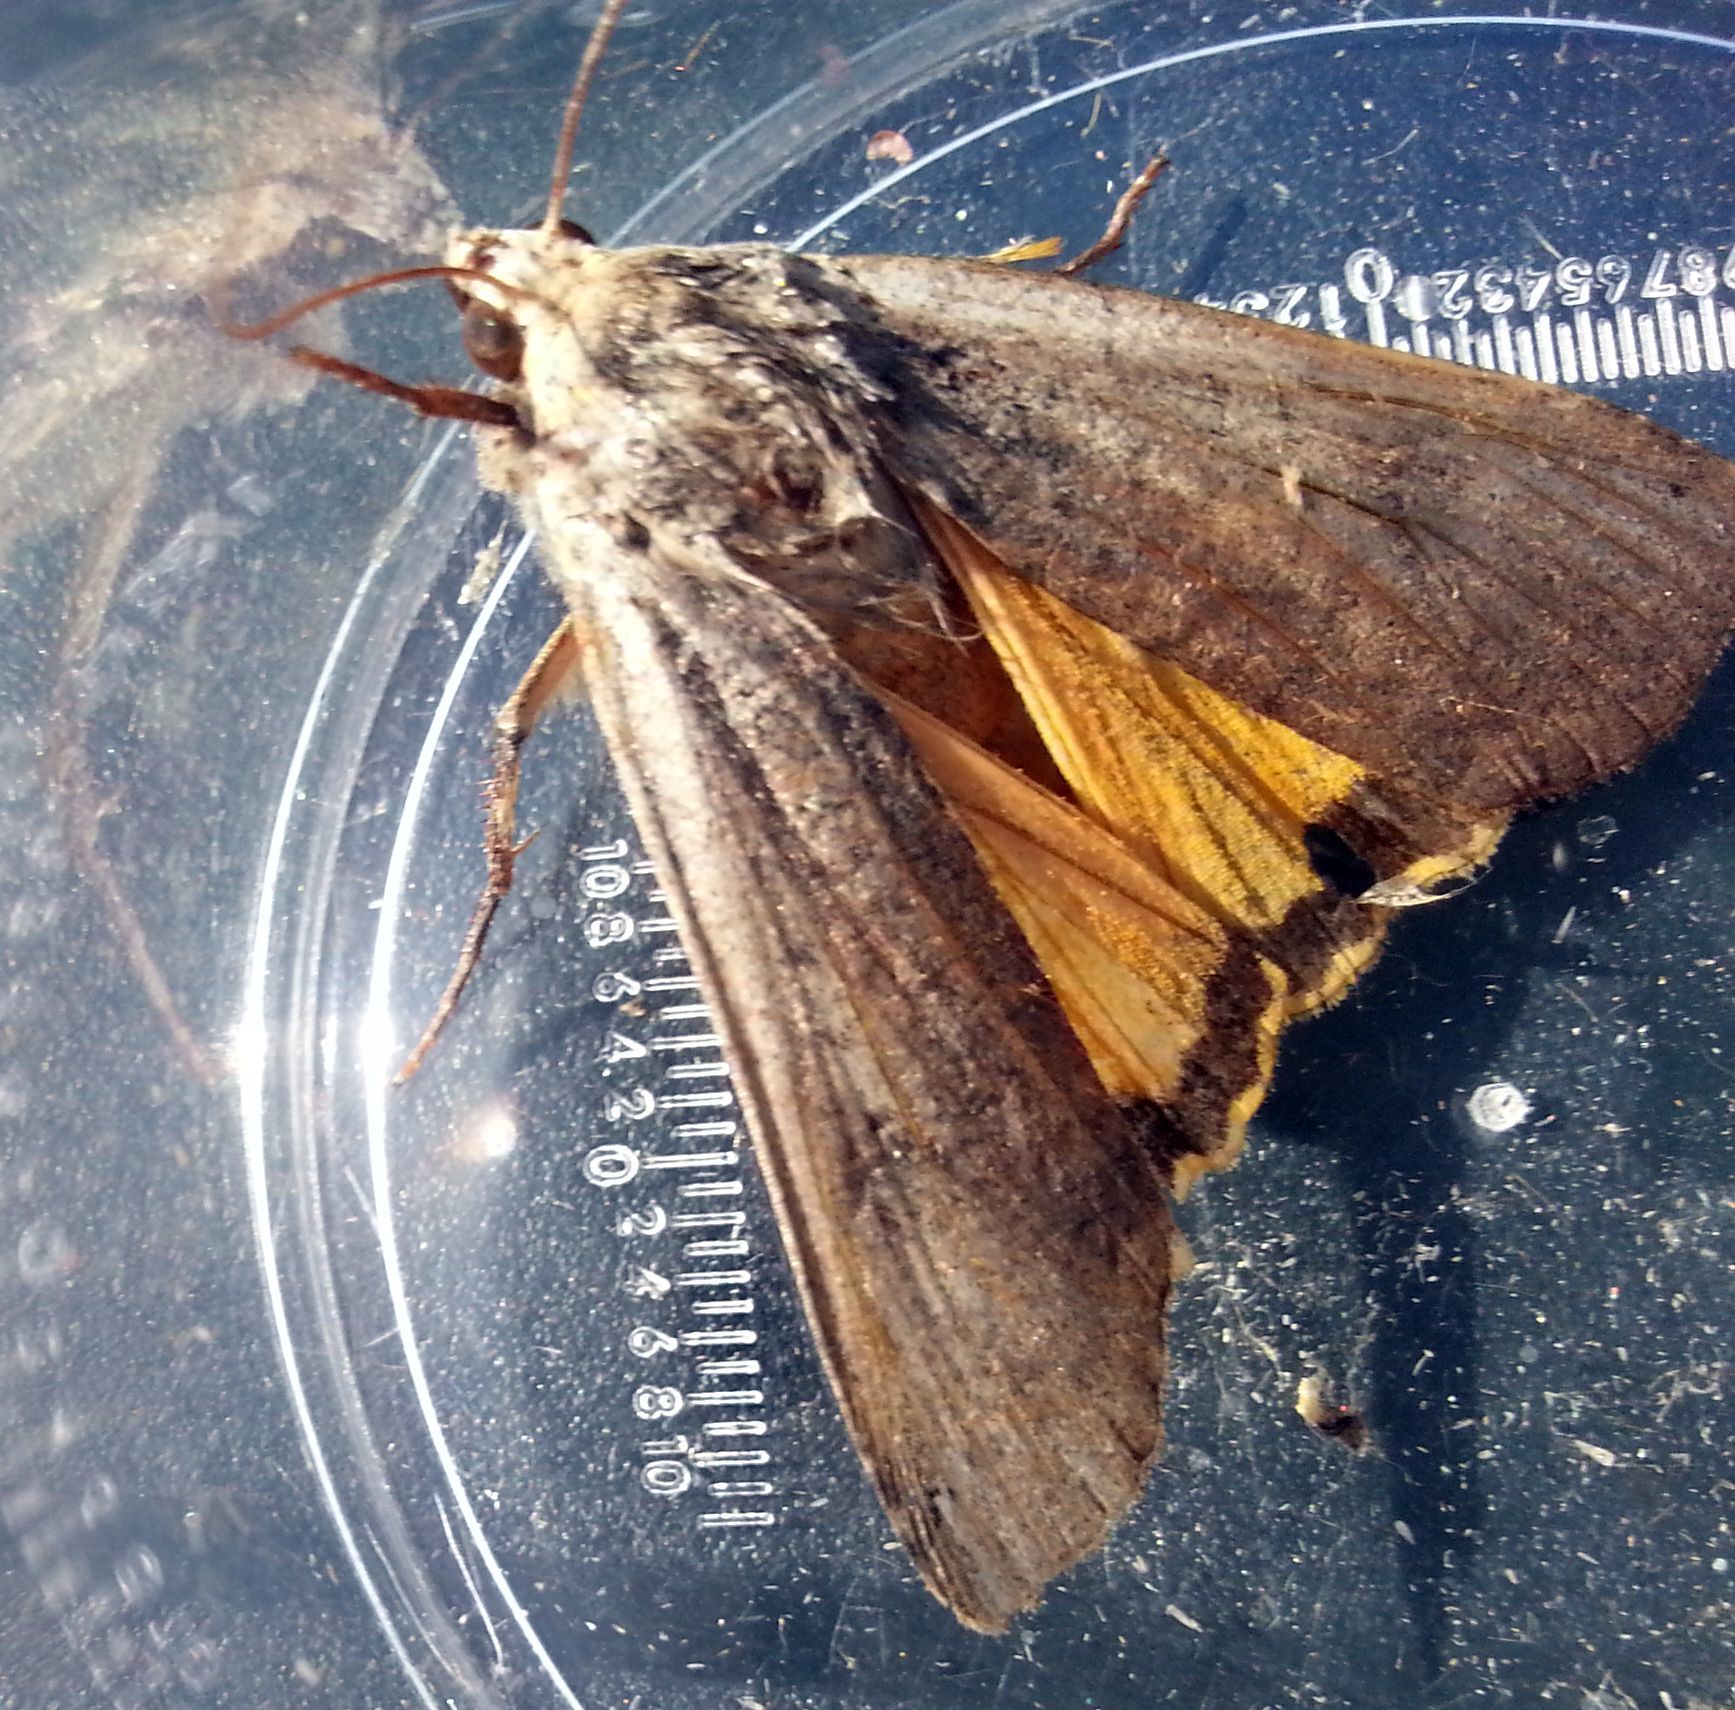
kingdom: Animalia
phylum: Arthropoda
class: Insecta
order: Lepidoptera
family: Noctuidae
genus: Noctua
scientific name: Noctua pronuba
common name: Large yellow underwing
